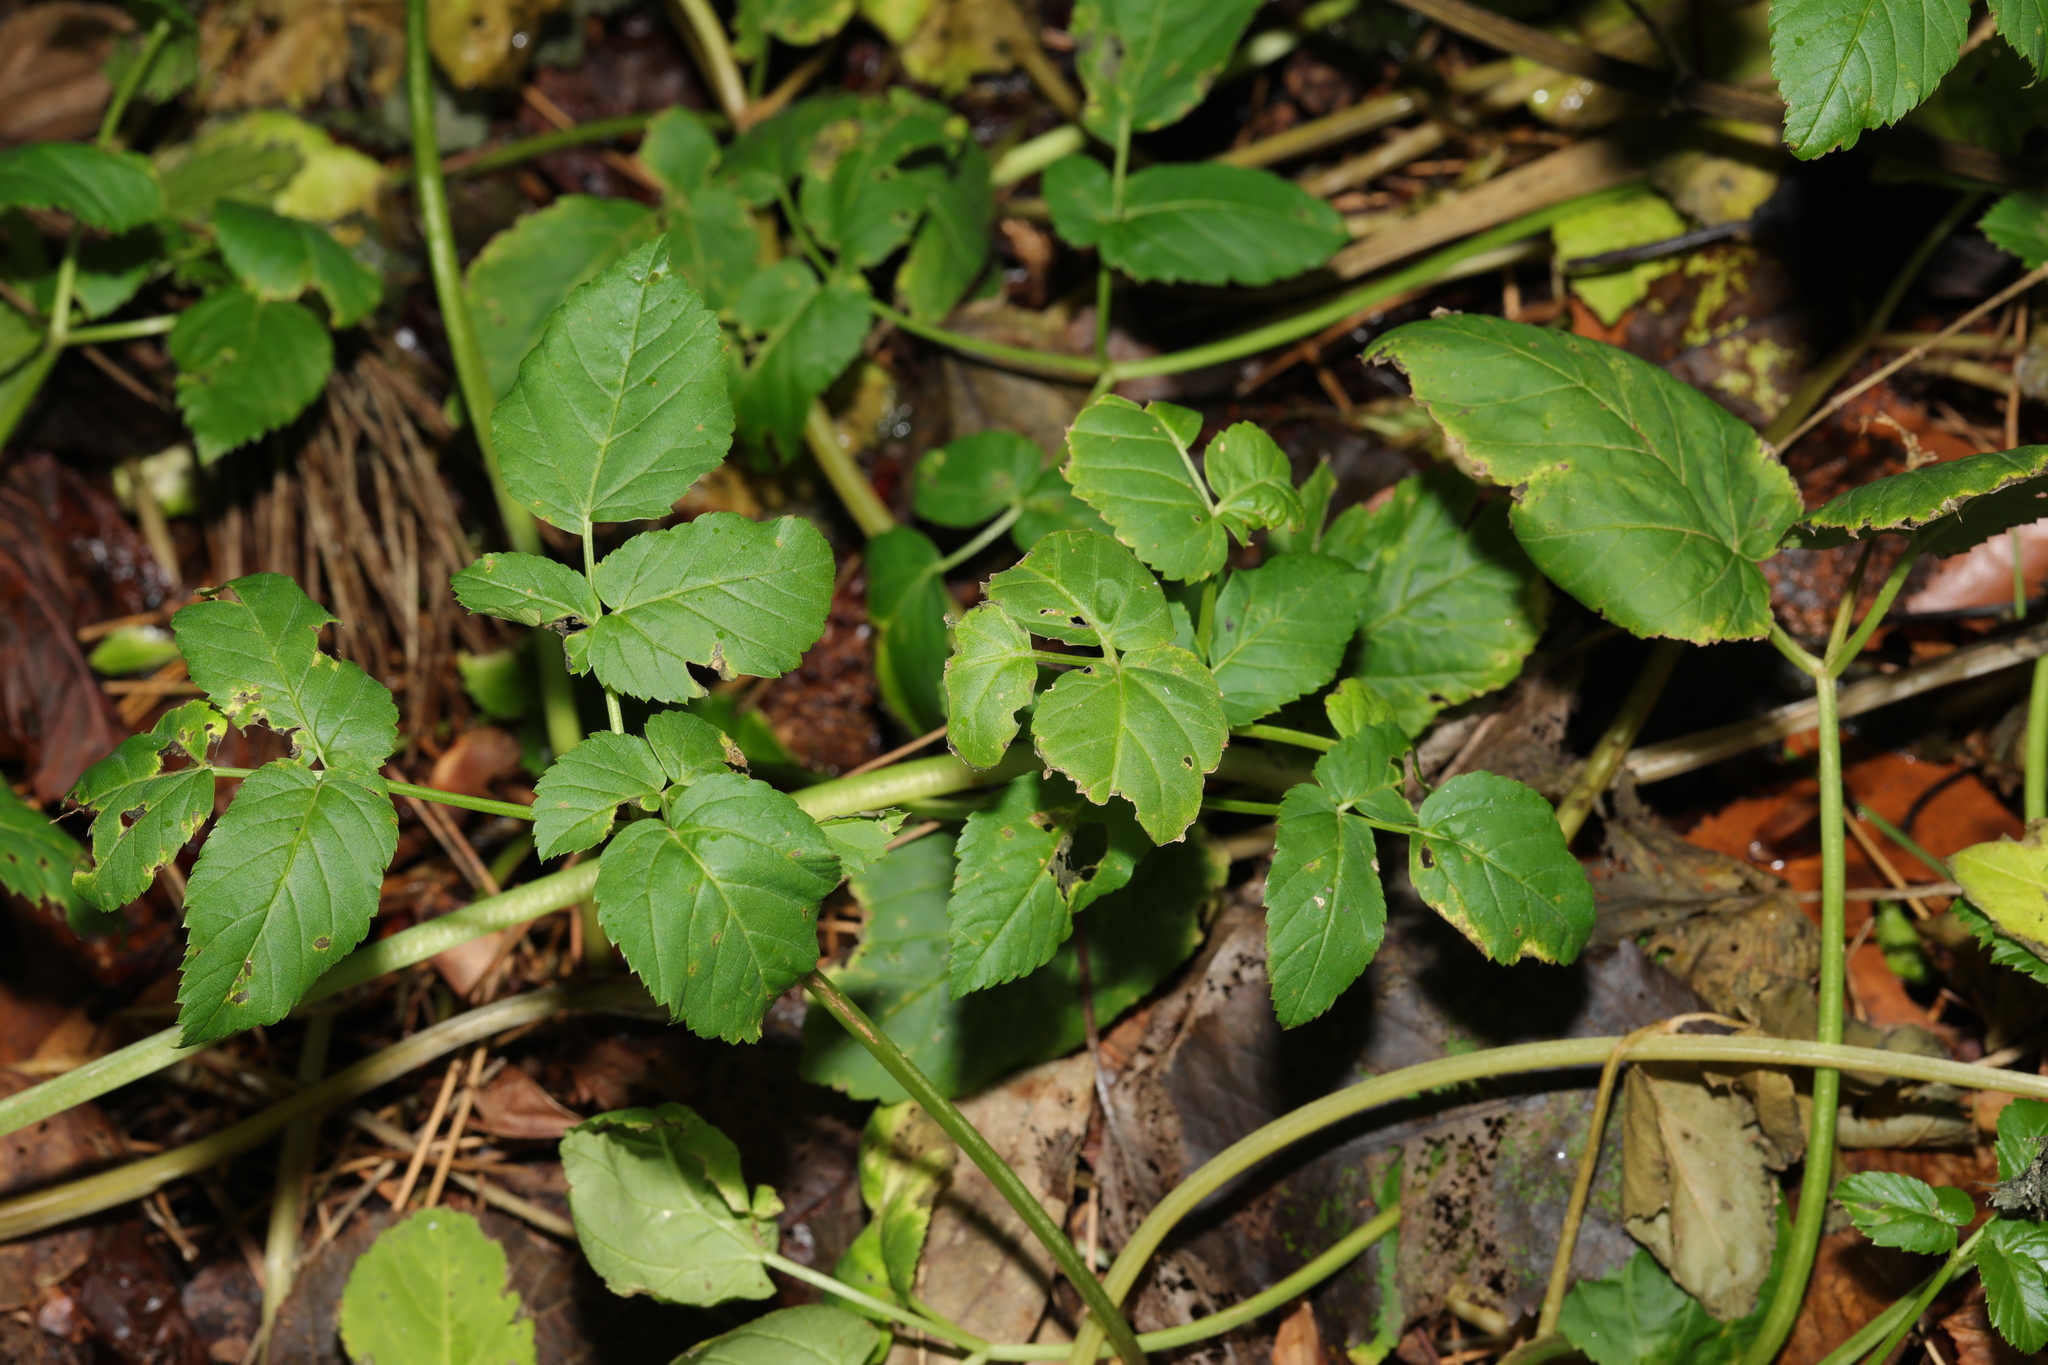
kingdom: Plantae
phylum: Tracheophyta
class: Magnoliopsida
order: Apiales
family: Apiaceae
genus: Aegopodium
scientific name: Aegopodium podagraria
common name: Ground-elder
